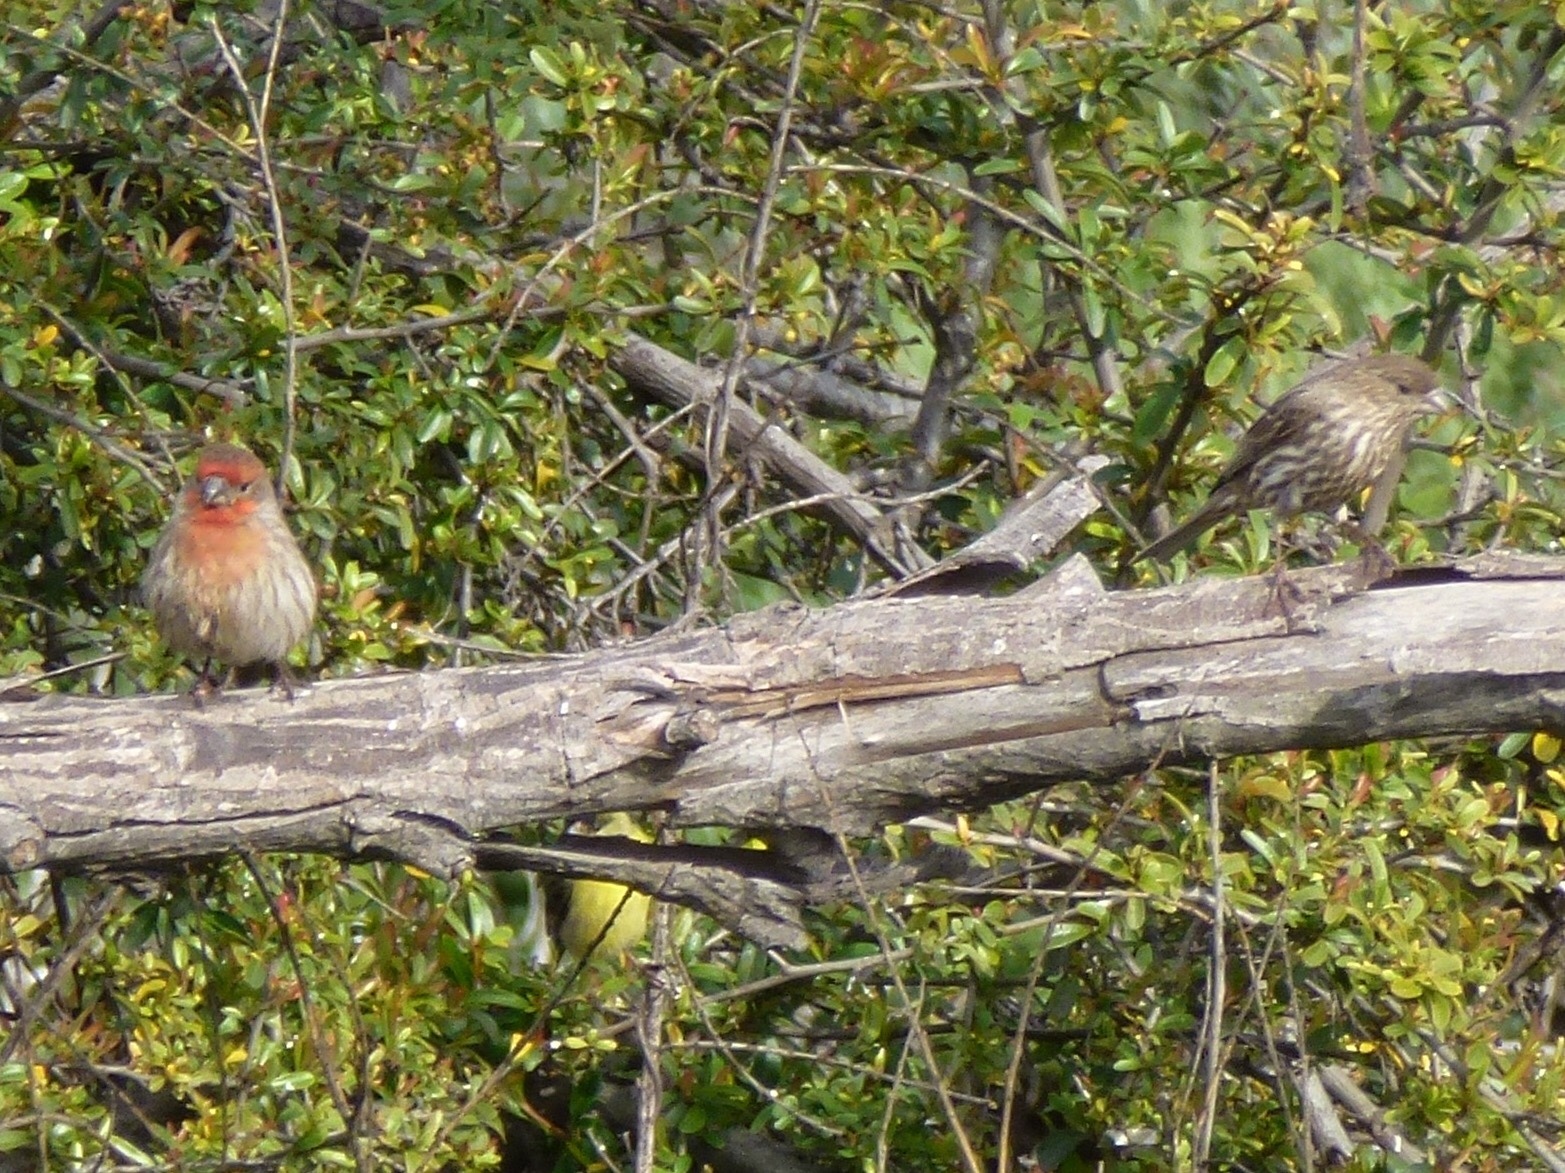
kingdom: Animalia
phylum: Chordata
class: Aves
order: Passeriformes
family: Fringillidae
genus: Haemorhous
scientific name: Haemorhous mexicanus
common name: House finch
